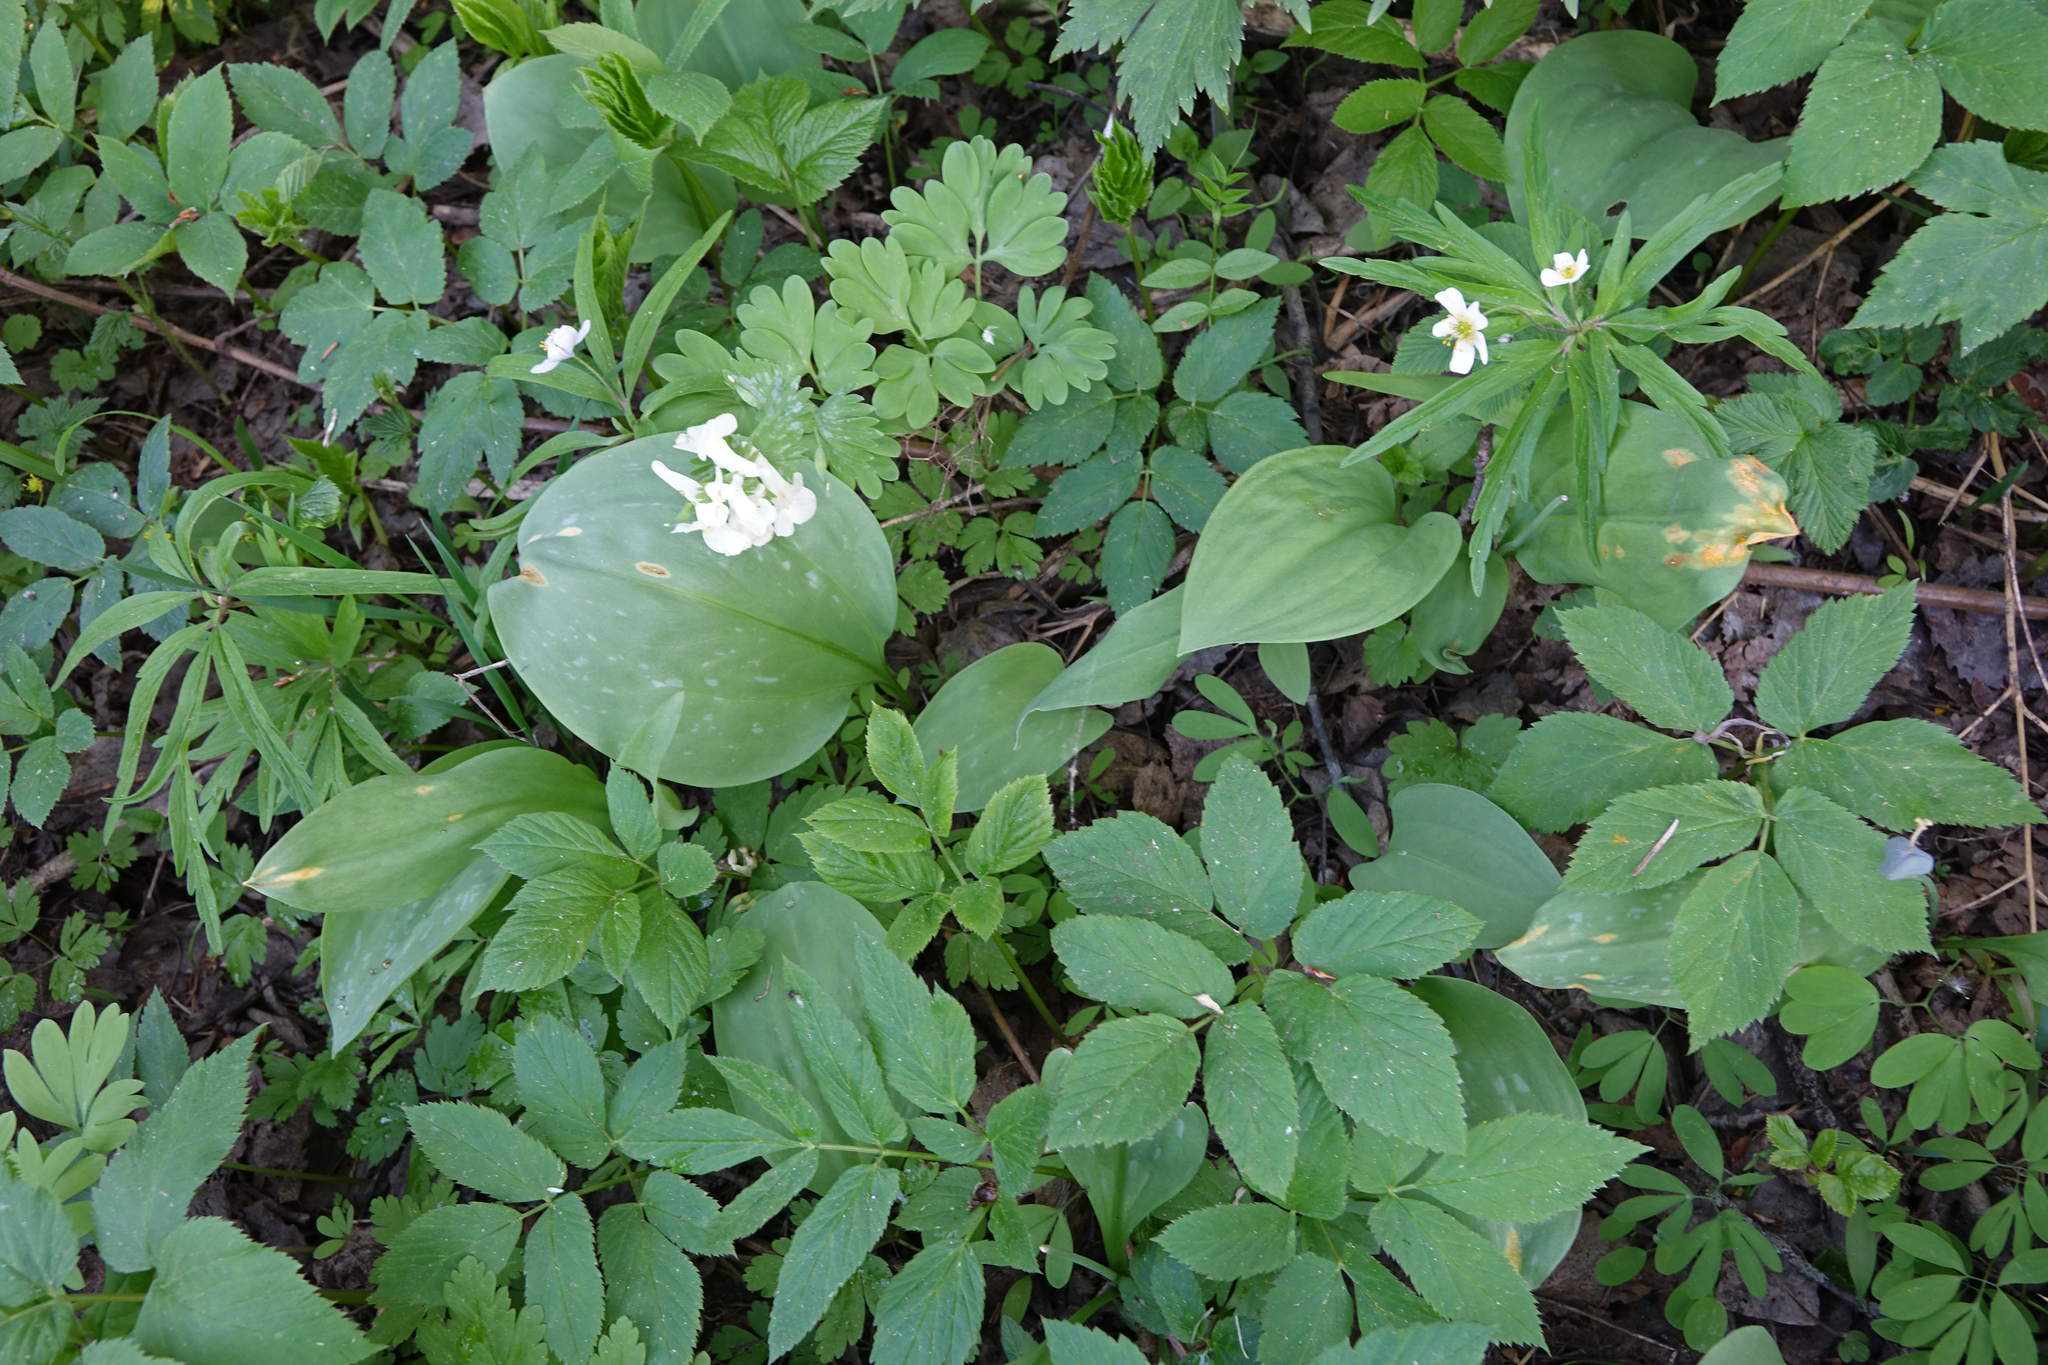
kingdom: Plantae
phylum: Tracheophyta
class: Liliopsida
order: Liliales
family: Liliaceae
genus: Erythronium
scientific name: Erythronium sibiricum
